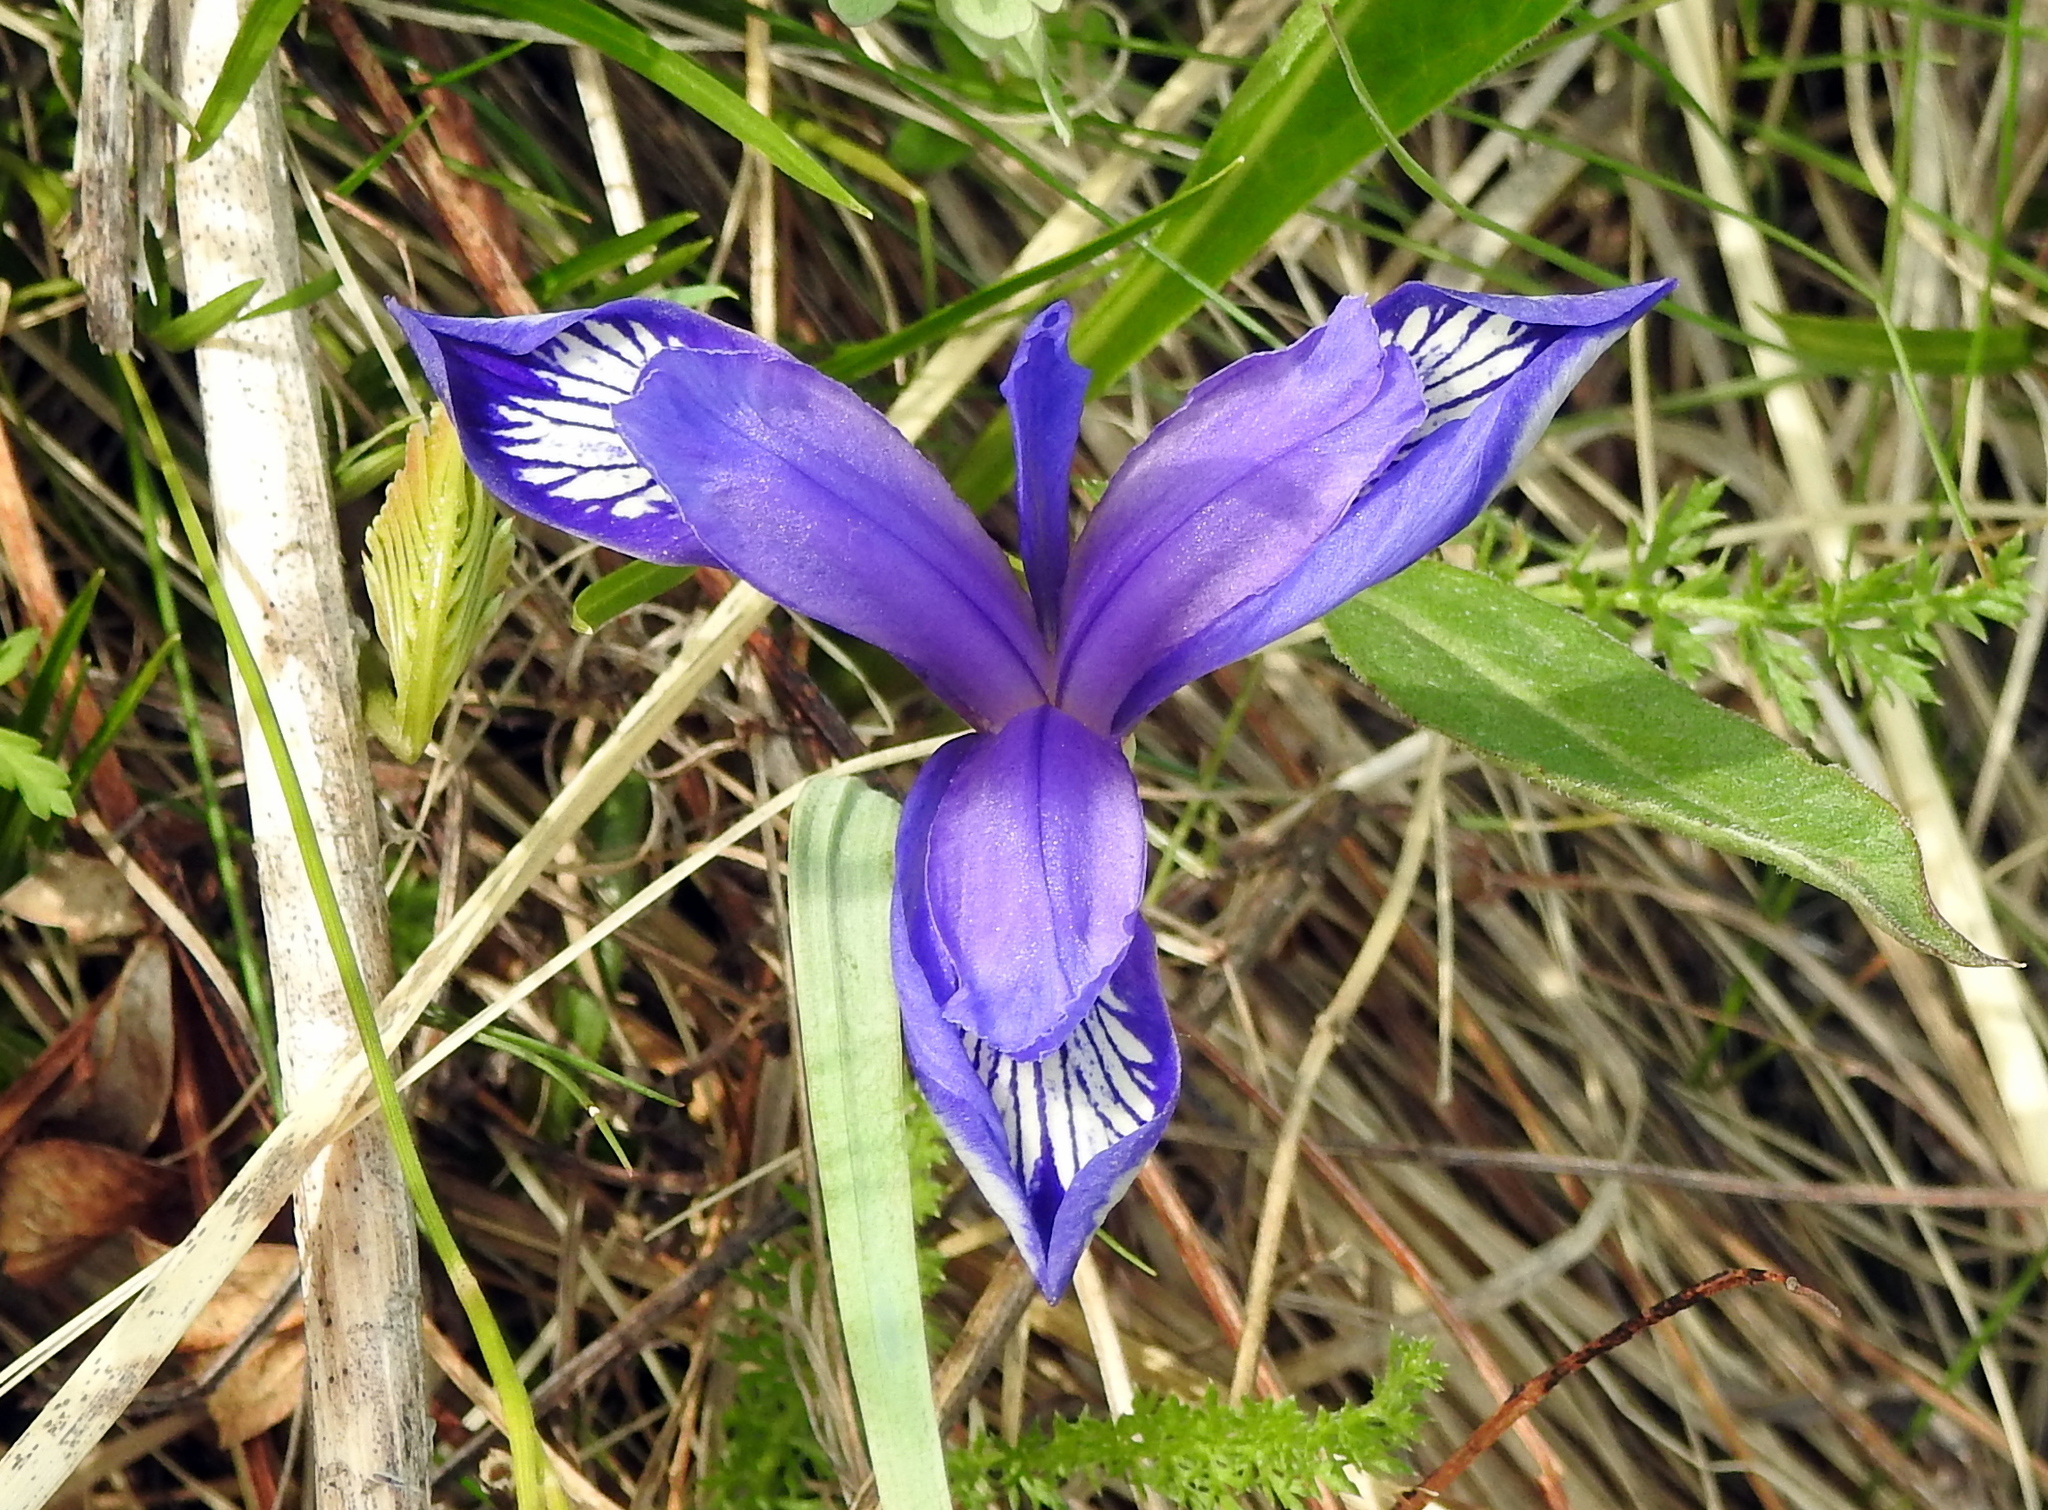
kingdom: Plantae
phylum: Tracheophyta
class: Liliopsida
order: Asparagales
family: Iridaceae
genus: Iris
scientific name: Iris uniflora
